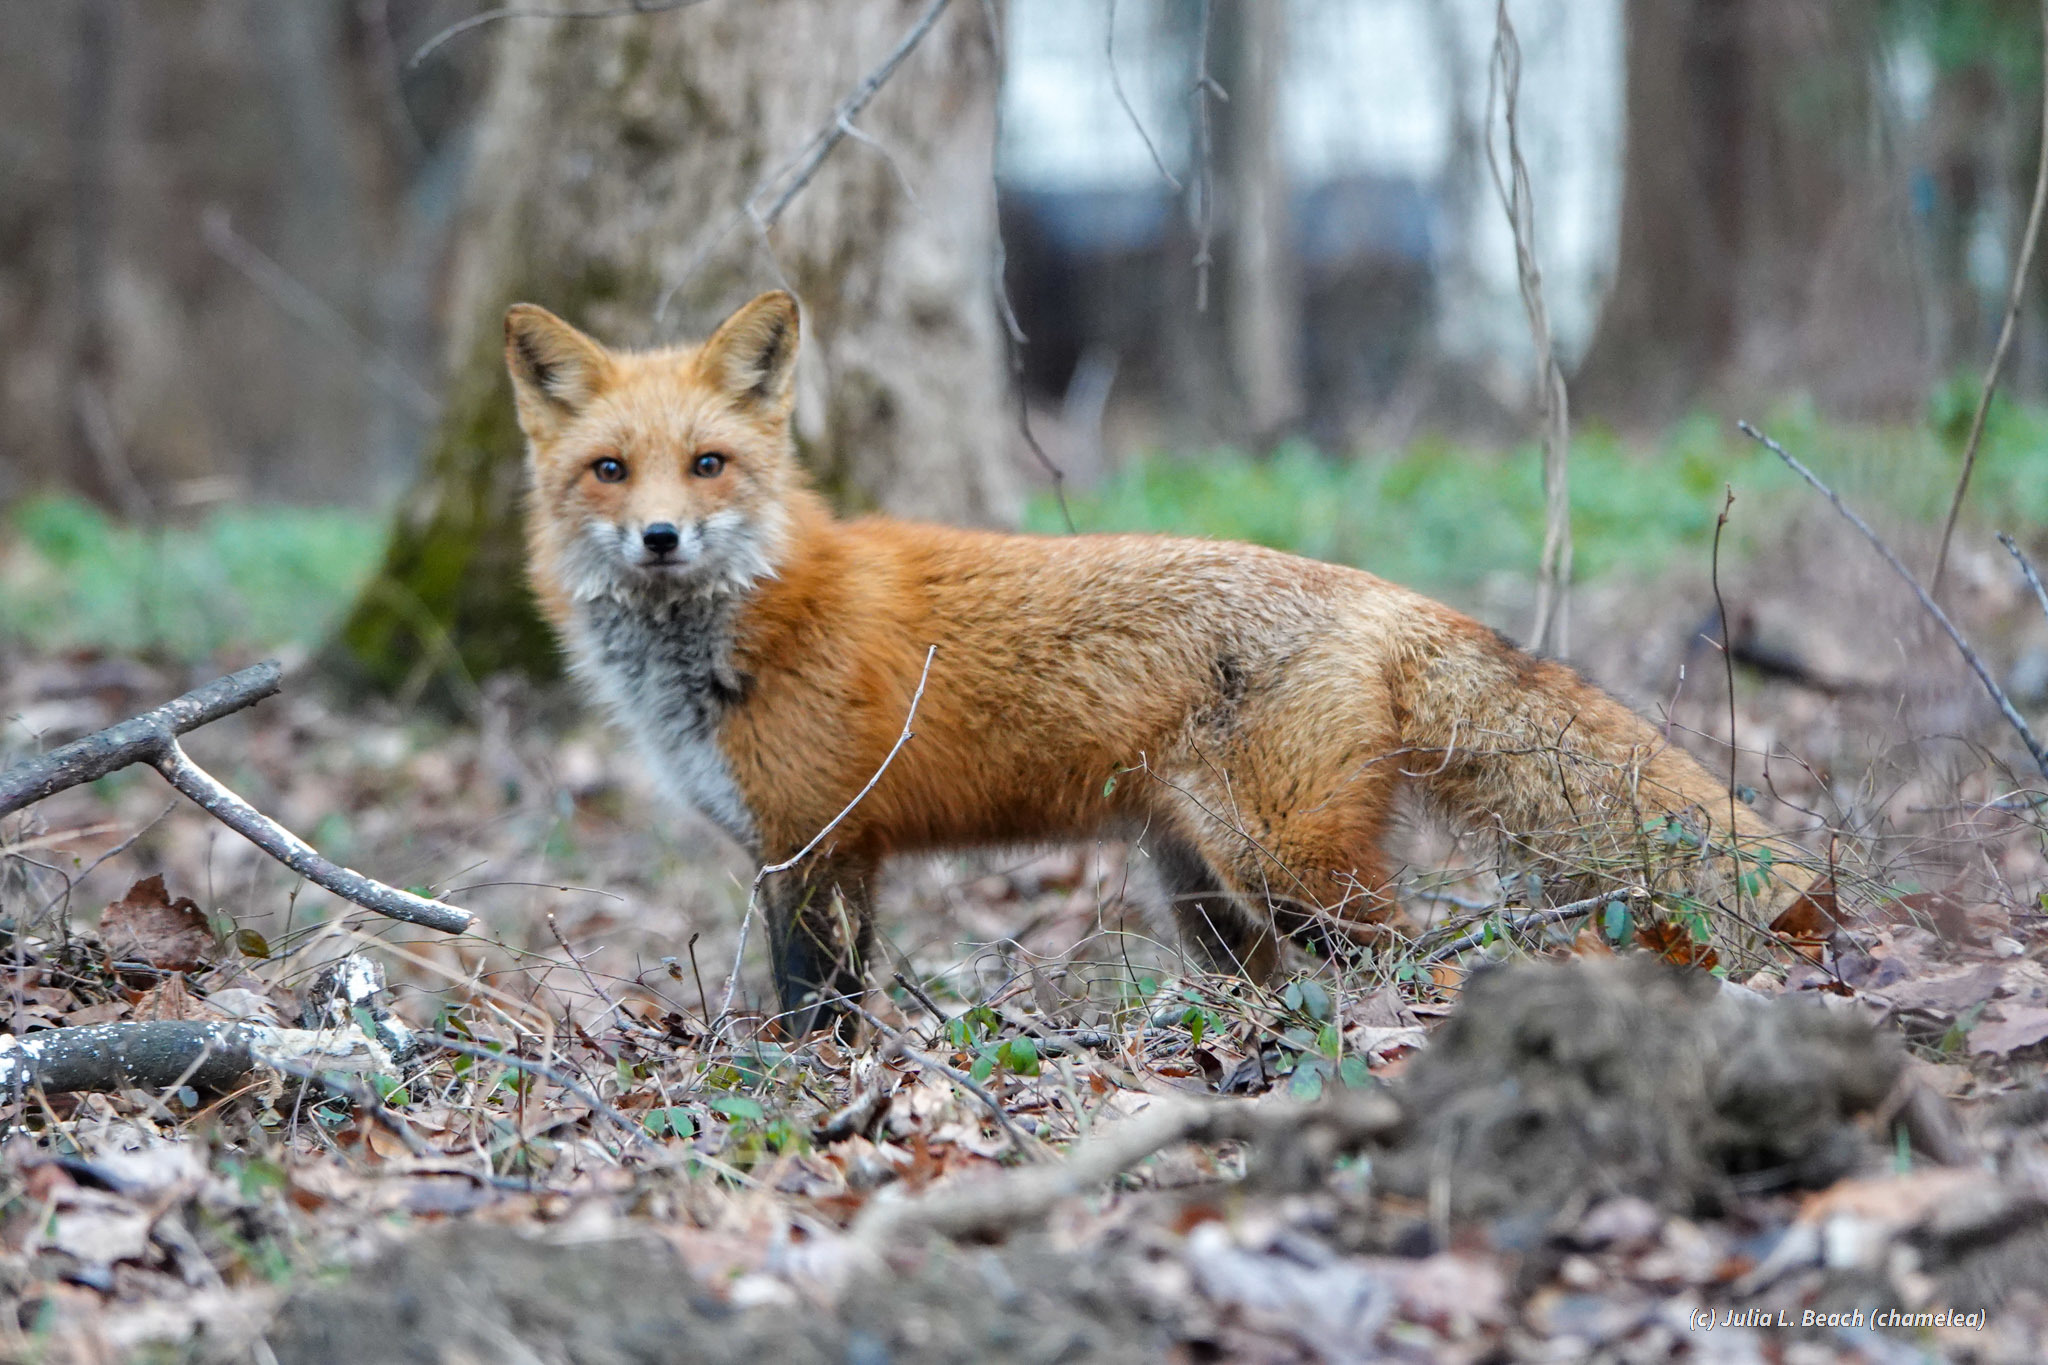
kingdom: Animalia
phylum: Chordata
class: Mammalia
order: Carnivora
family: Canidae
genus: Vulpes
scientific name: Vulpes vulpes
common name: Red fox
